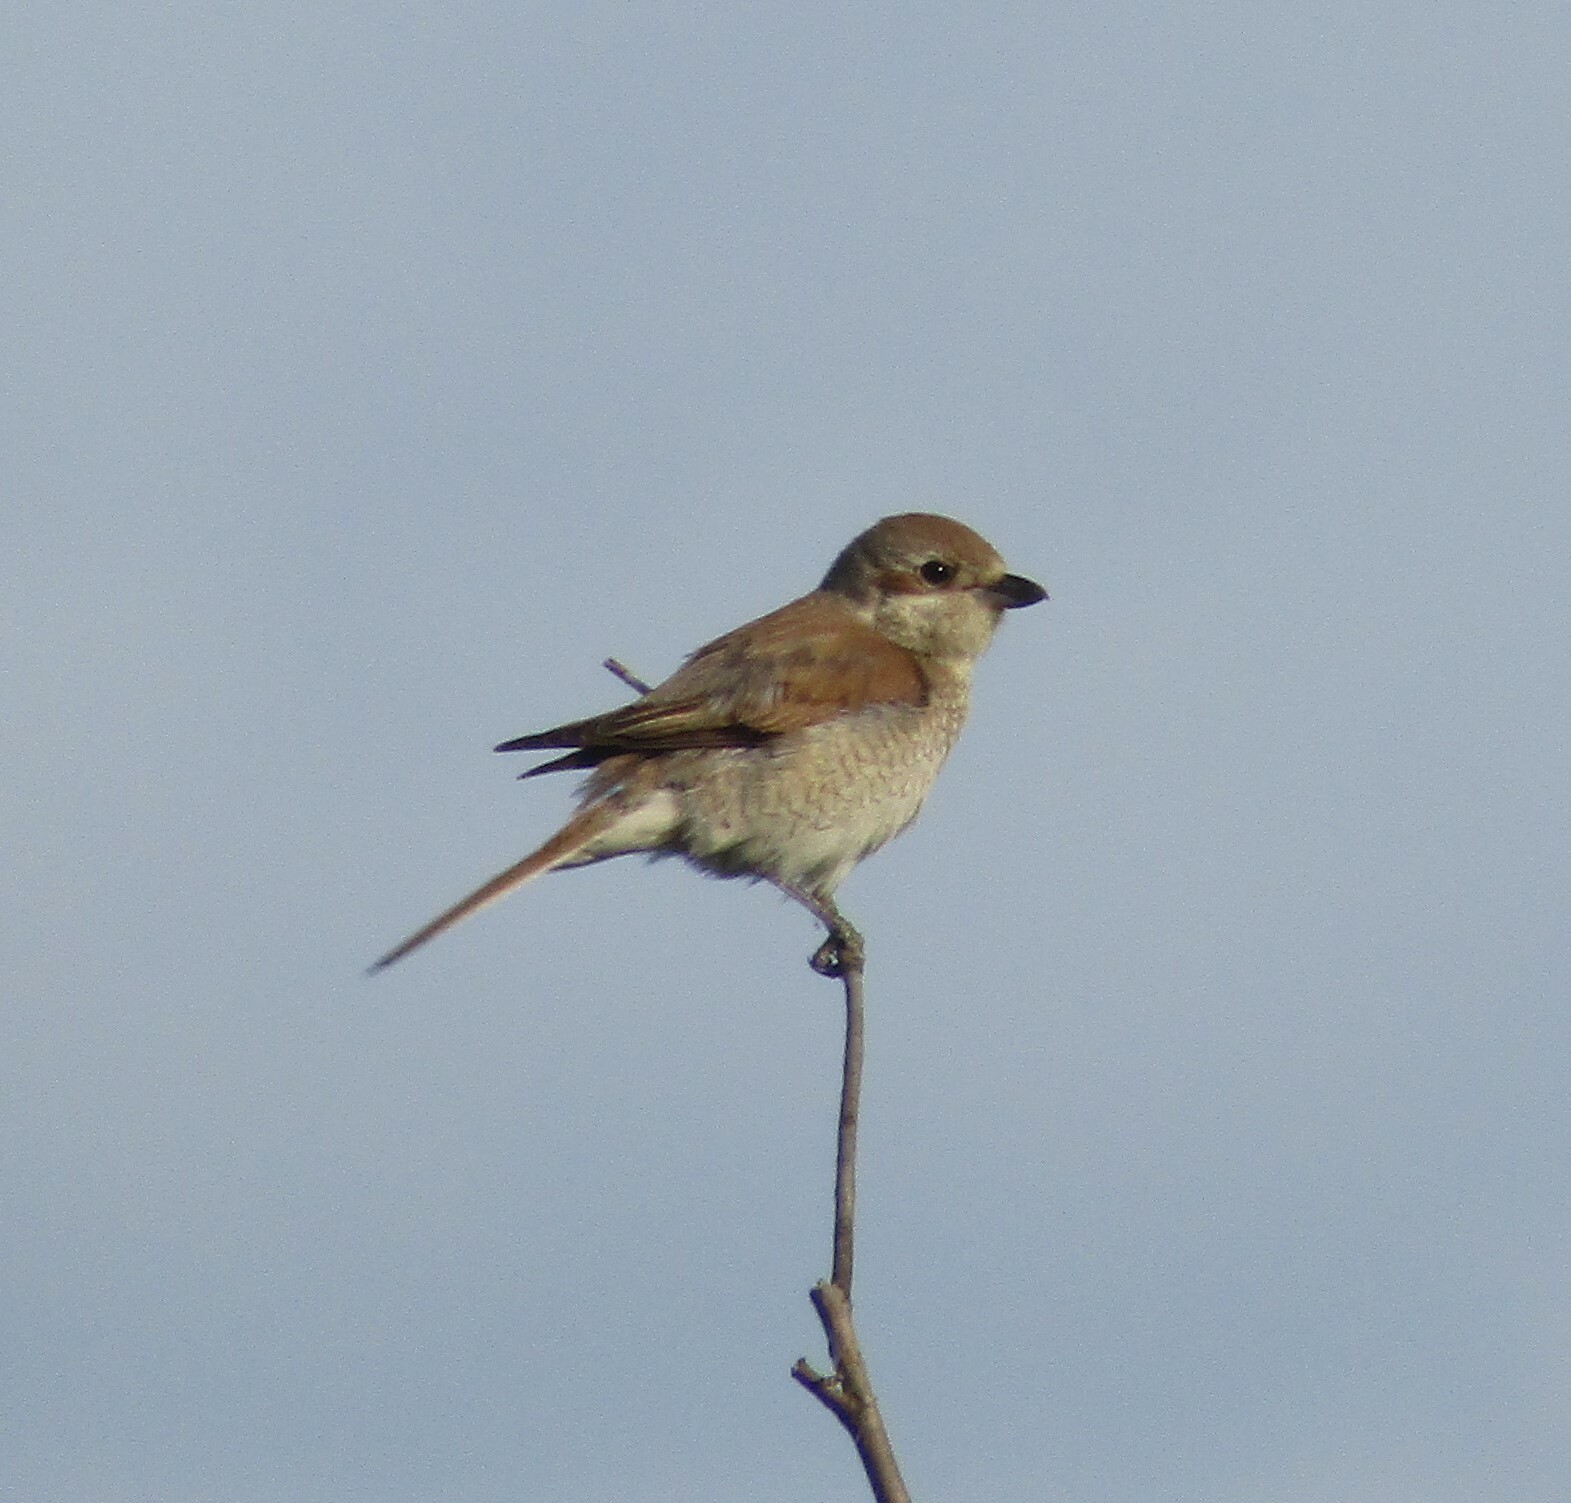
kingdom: Animalia
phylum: Chordata
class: Aves
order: Passeriformes
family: Laniidae
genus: Lanius
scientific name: Lanius collurio
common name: Red-backed shrike
